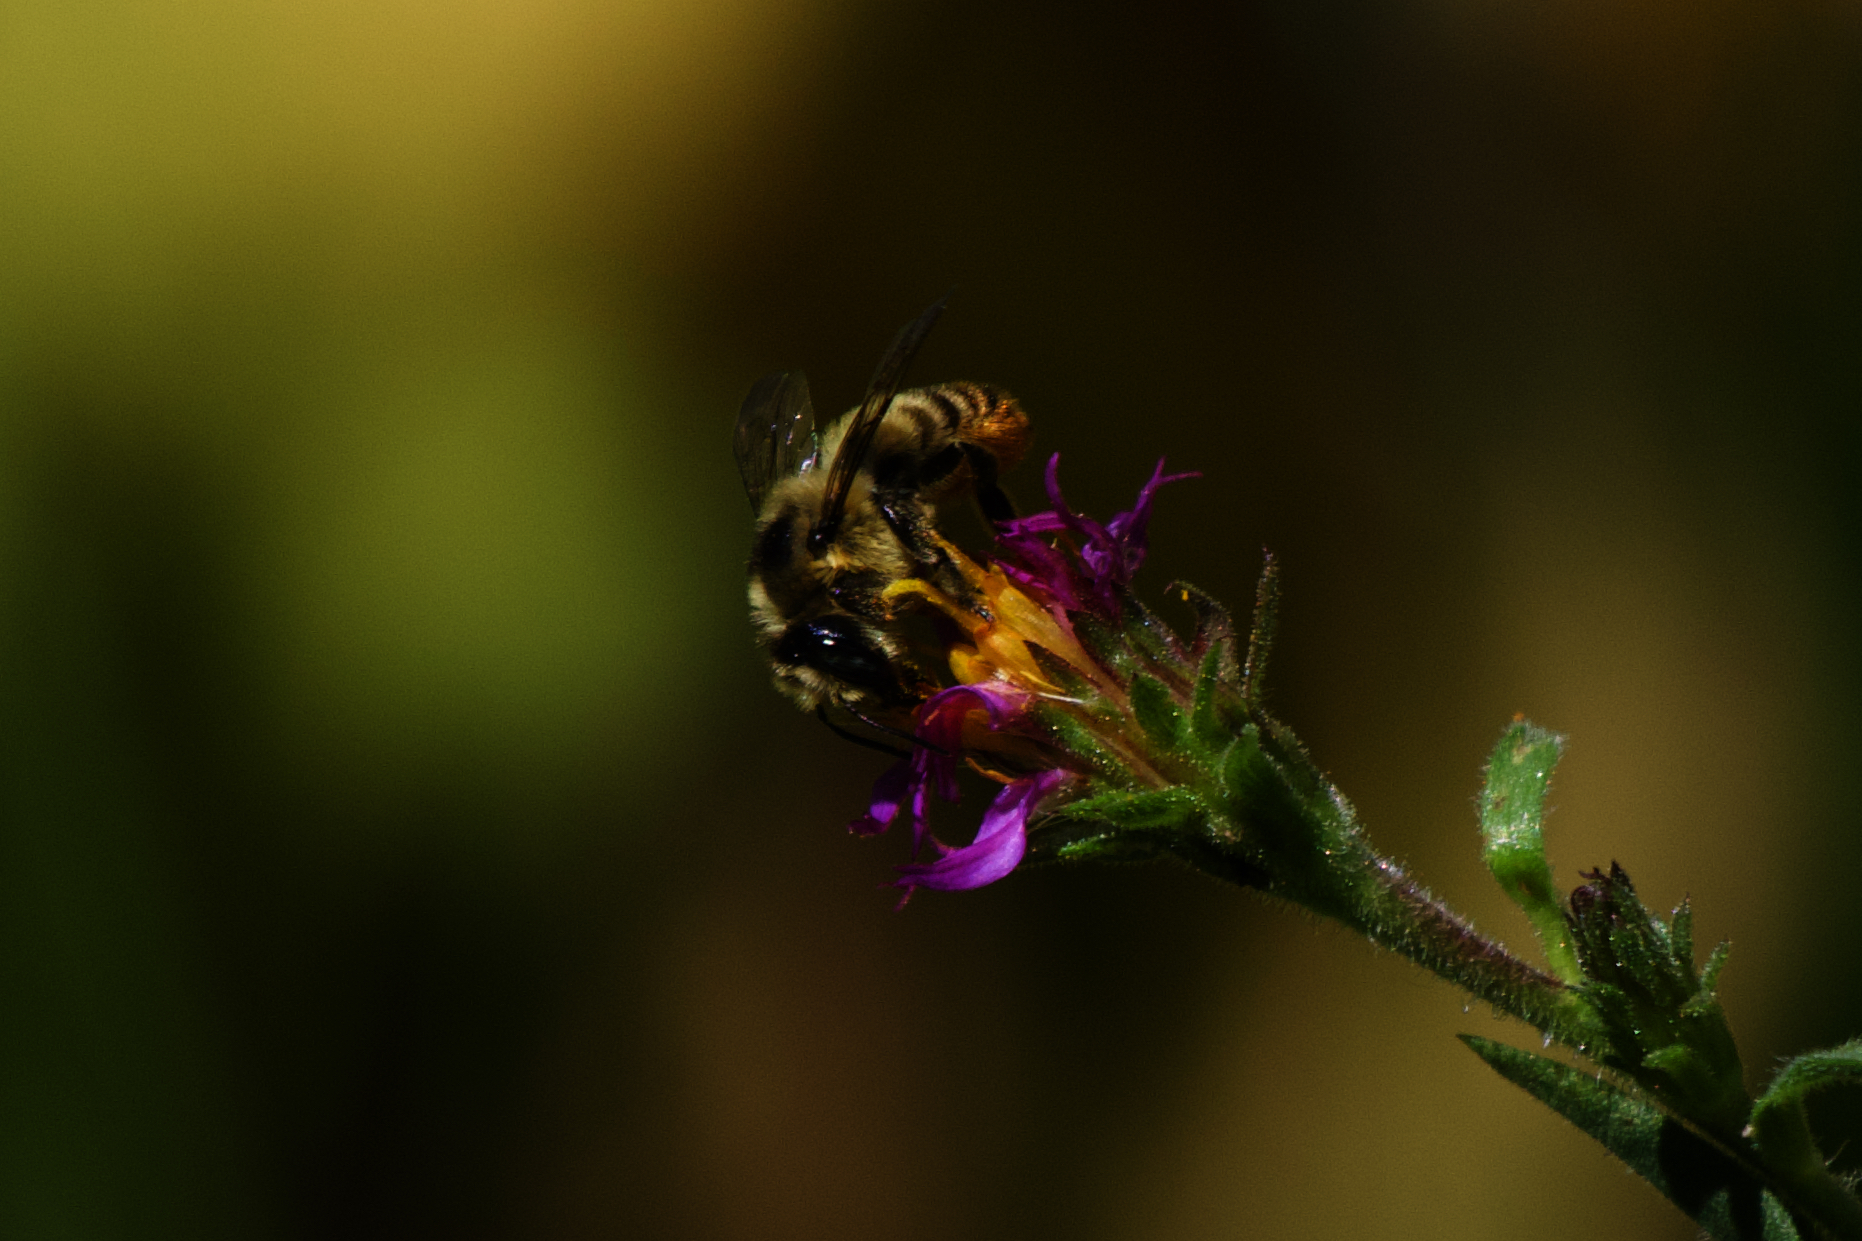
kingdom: Plantae
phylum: Tracheophyta
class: Magnoliopsida
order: Asterales
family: Asteraceae
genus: Eurybia
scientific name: Eurybia integrifolia
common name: Thick-stem aster
